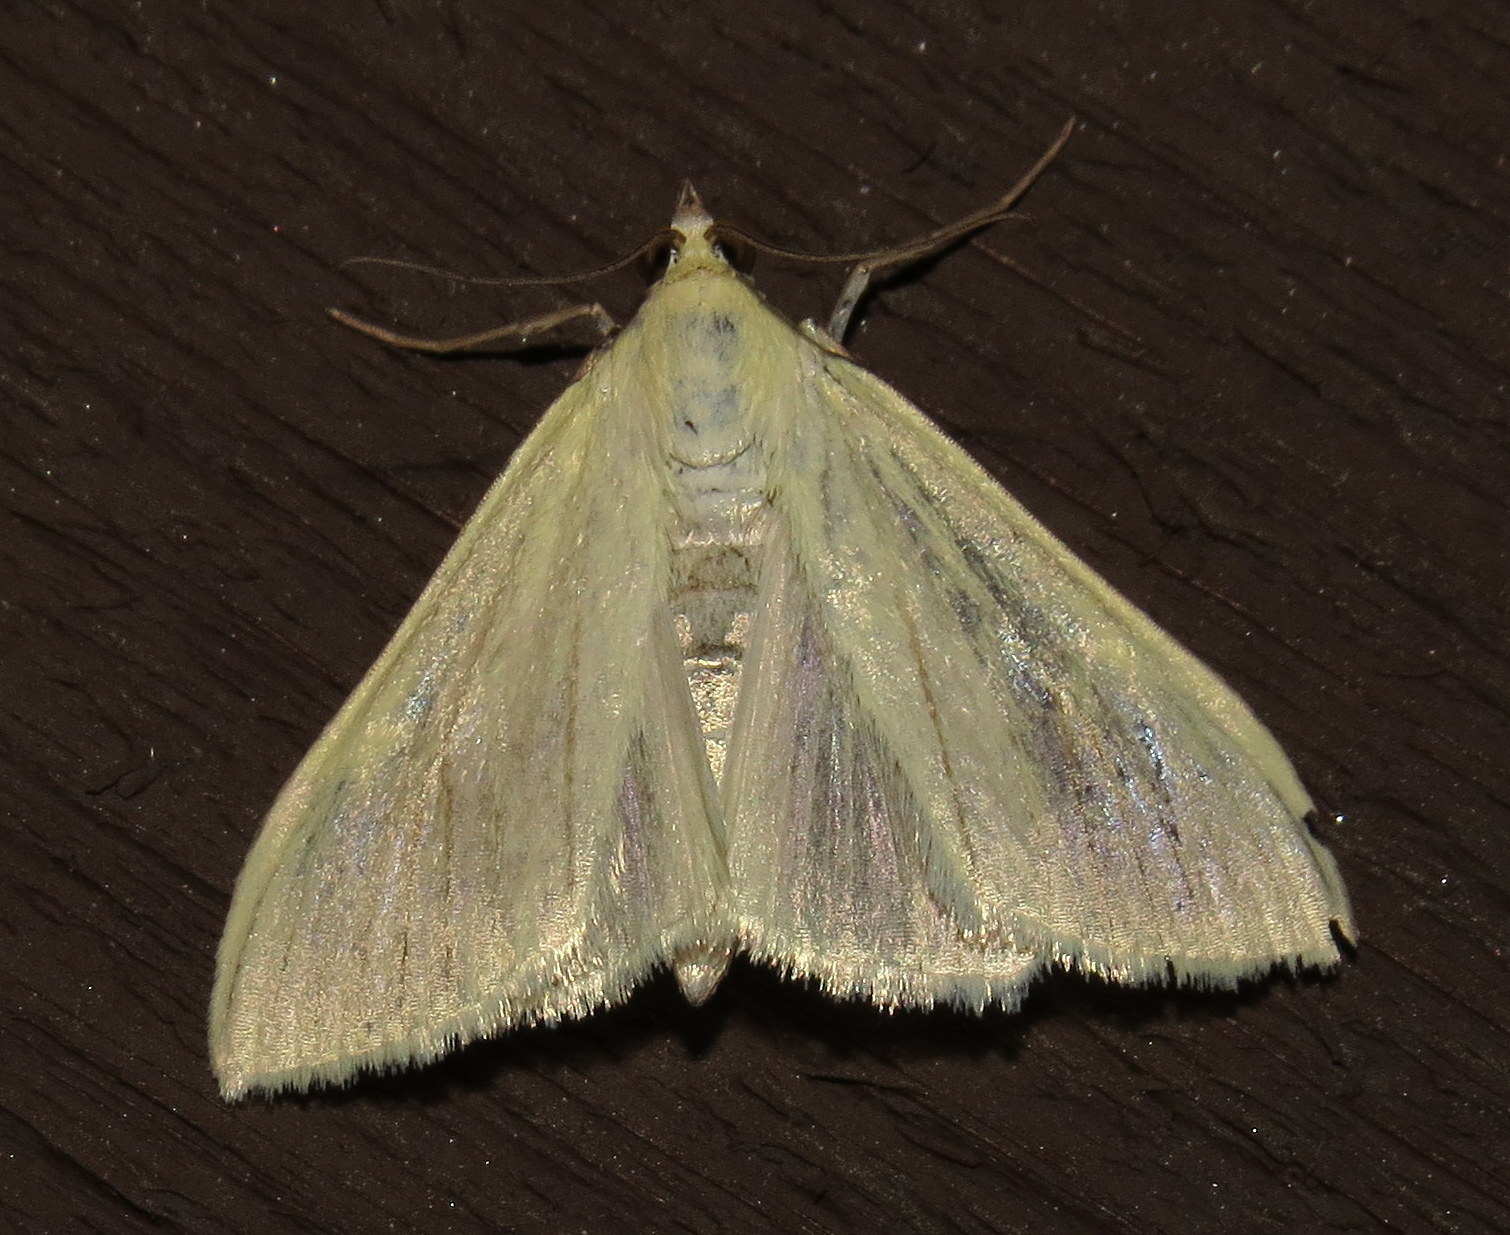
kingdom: Animalia
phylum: Arthropoda
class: Insecta
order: Lepidoptera
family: Crambidae
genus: Sitochroa
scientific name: Sitochroa palealis
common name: Greenish-yellow sitochroa moth
